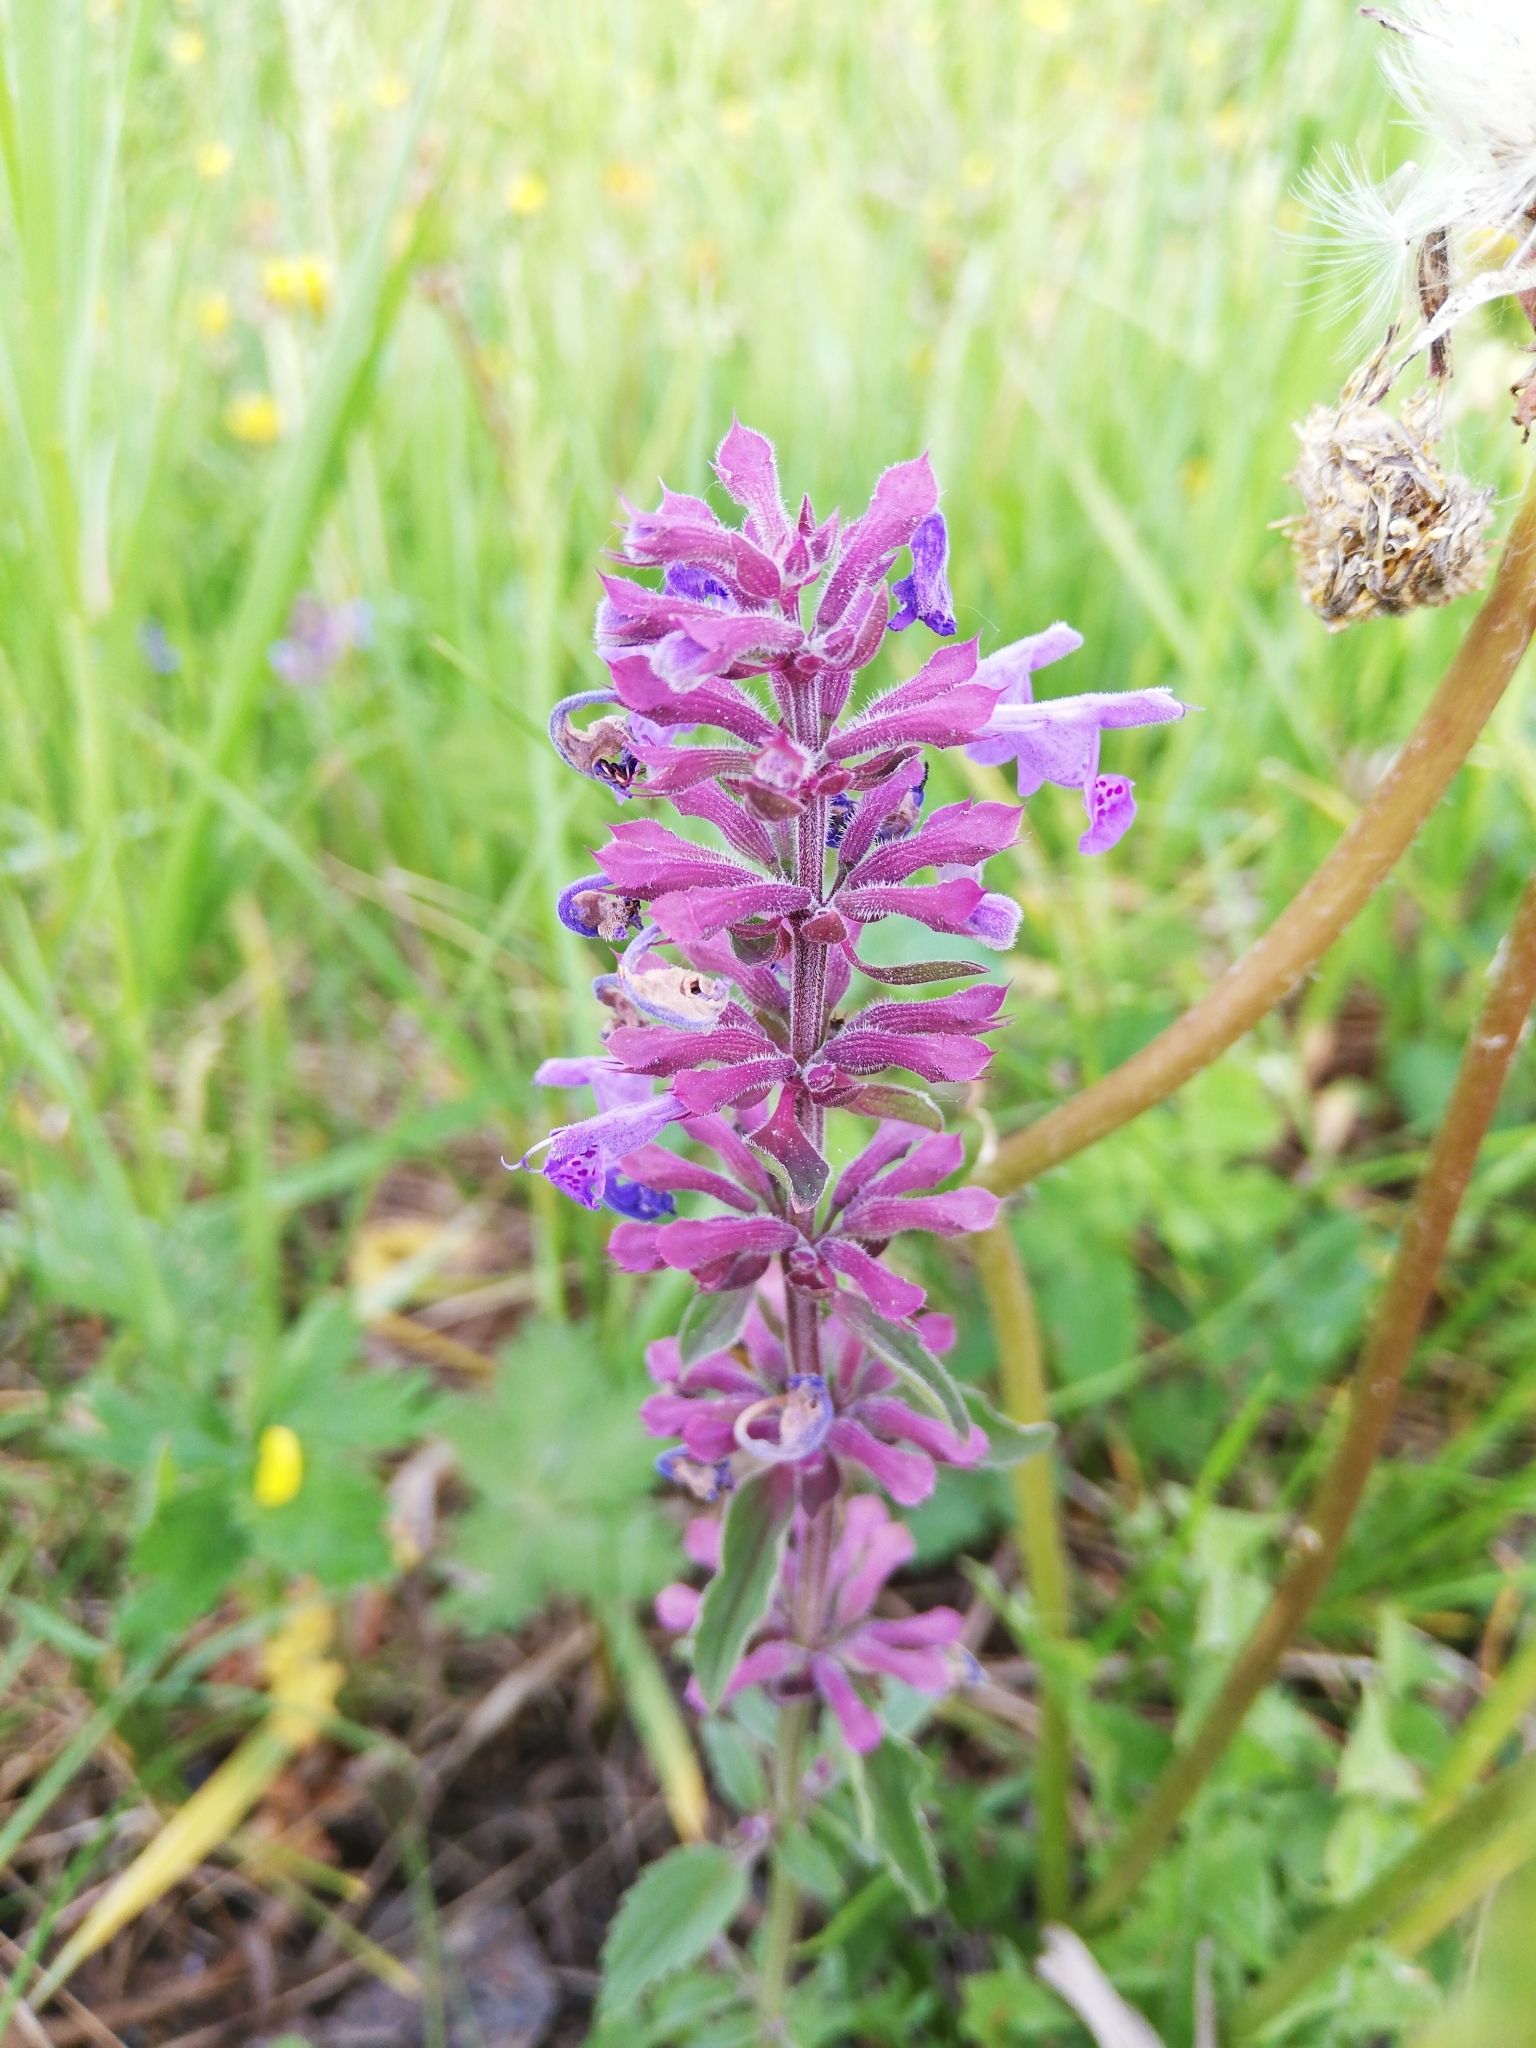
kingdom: Plantae
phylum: Tracheophyta
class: Magnoliopsida
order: Lamiales
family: Lamiaceae
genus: Dracocephalum
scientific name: Dracocephalum nutans
